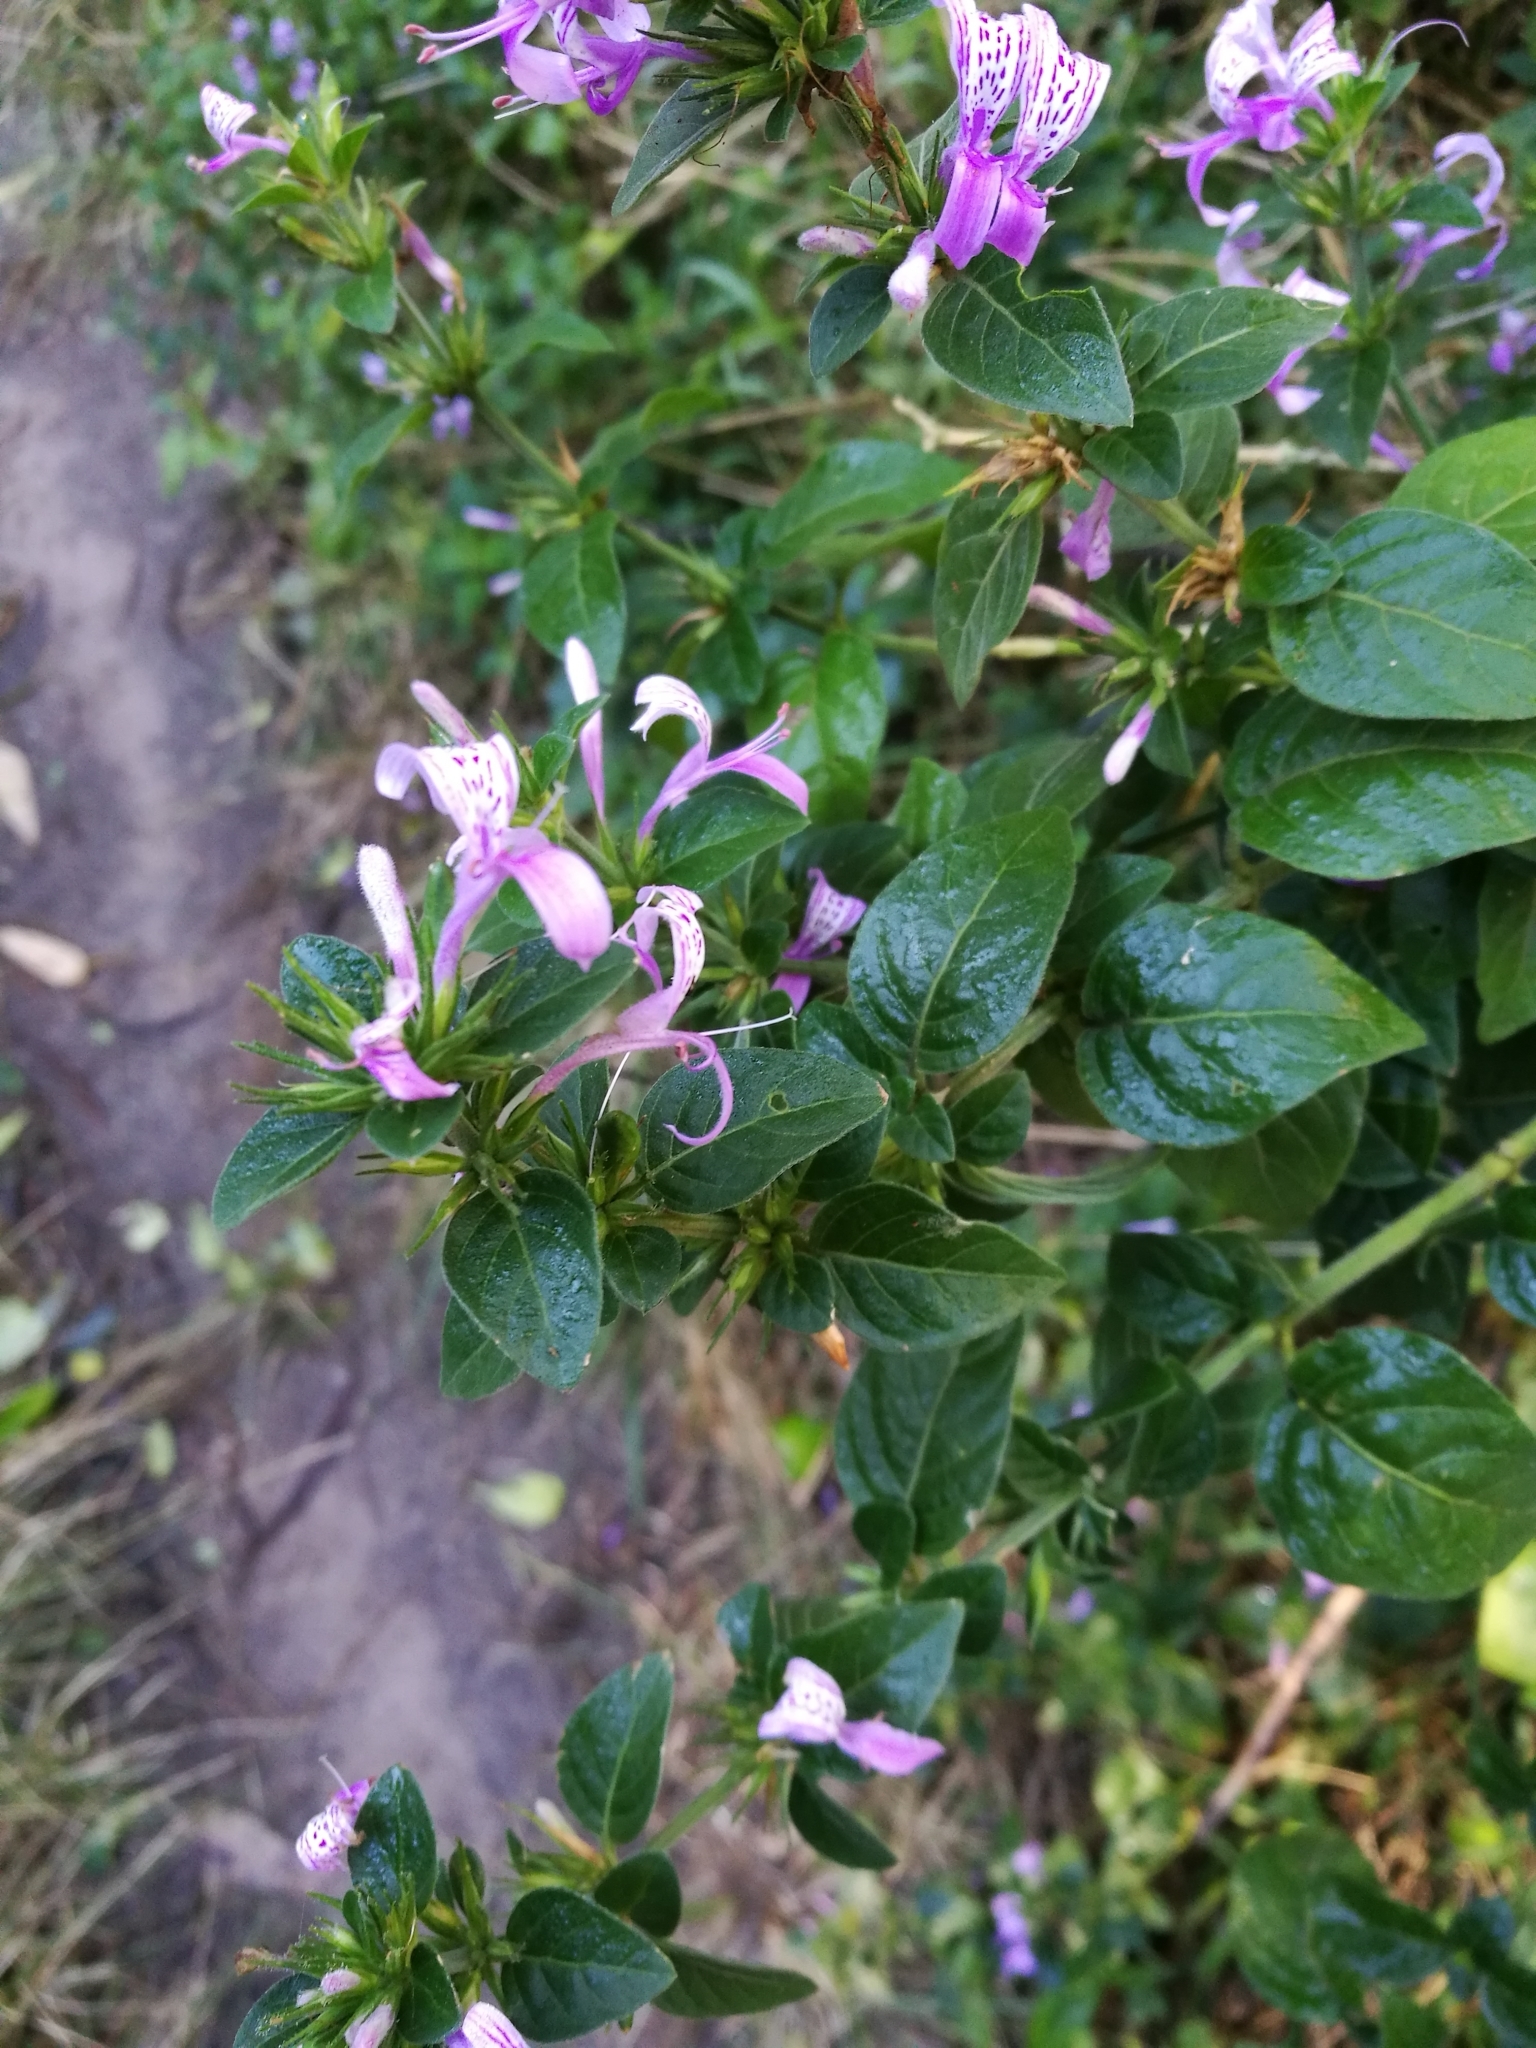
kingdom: Plantae
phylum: Tracheophyta
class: Magnoliopsida
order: Lamiales
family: Acanthaceae
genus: Hypoestes
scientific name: Hypoestes aristata
